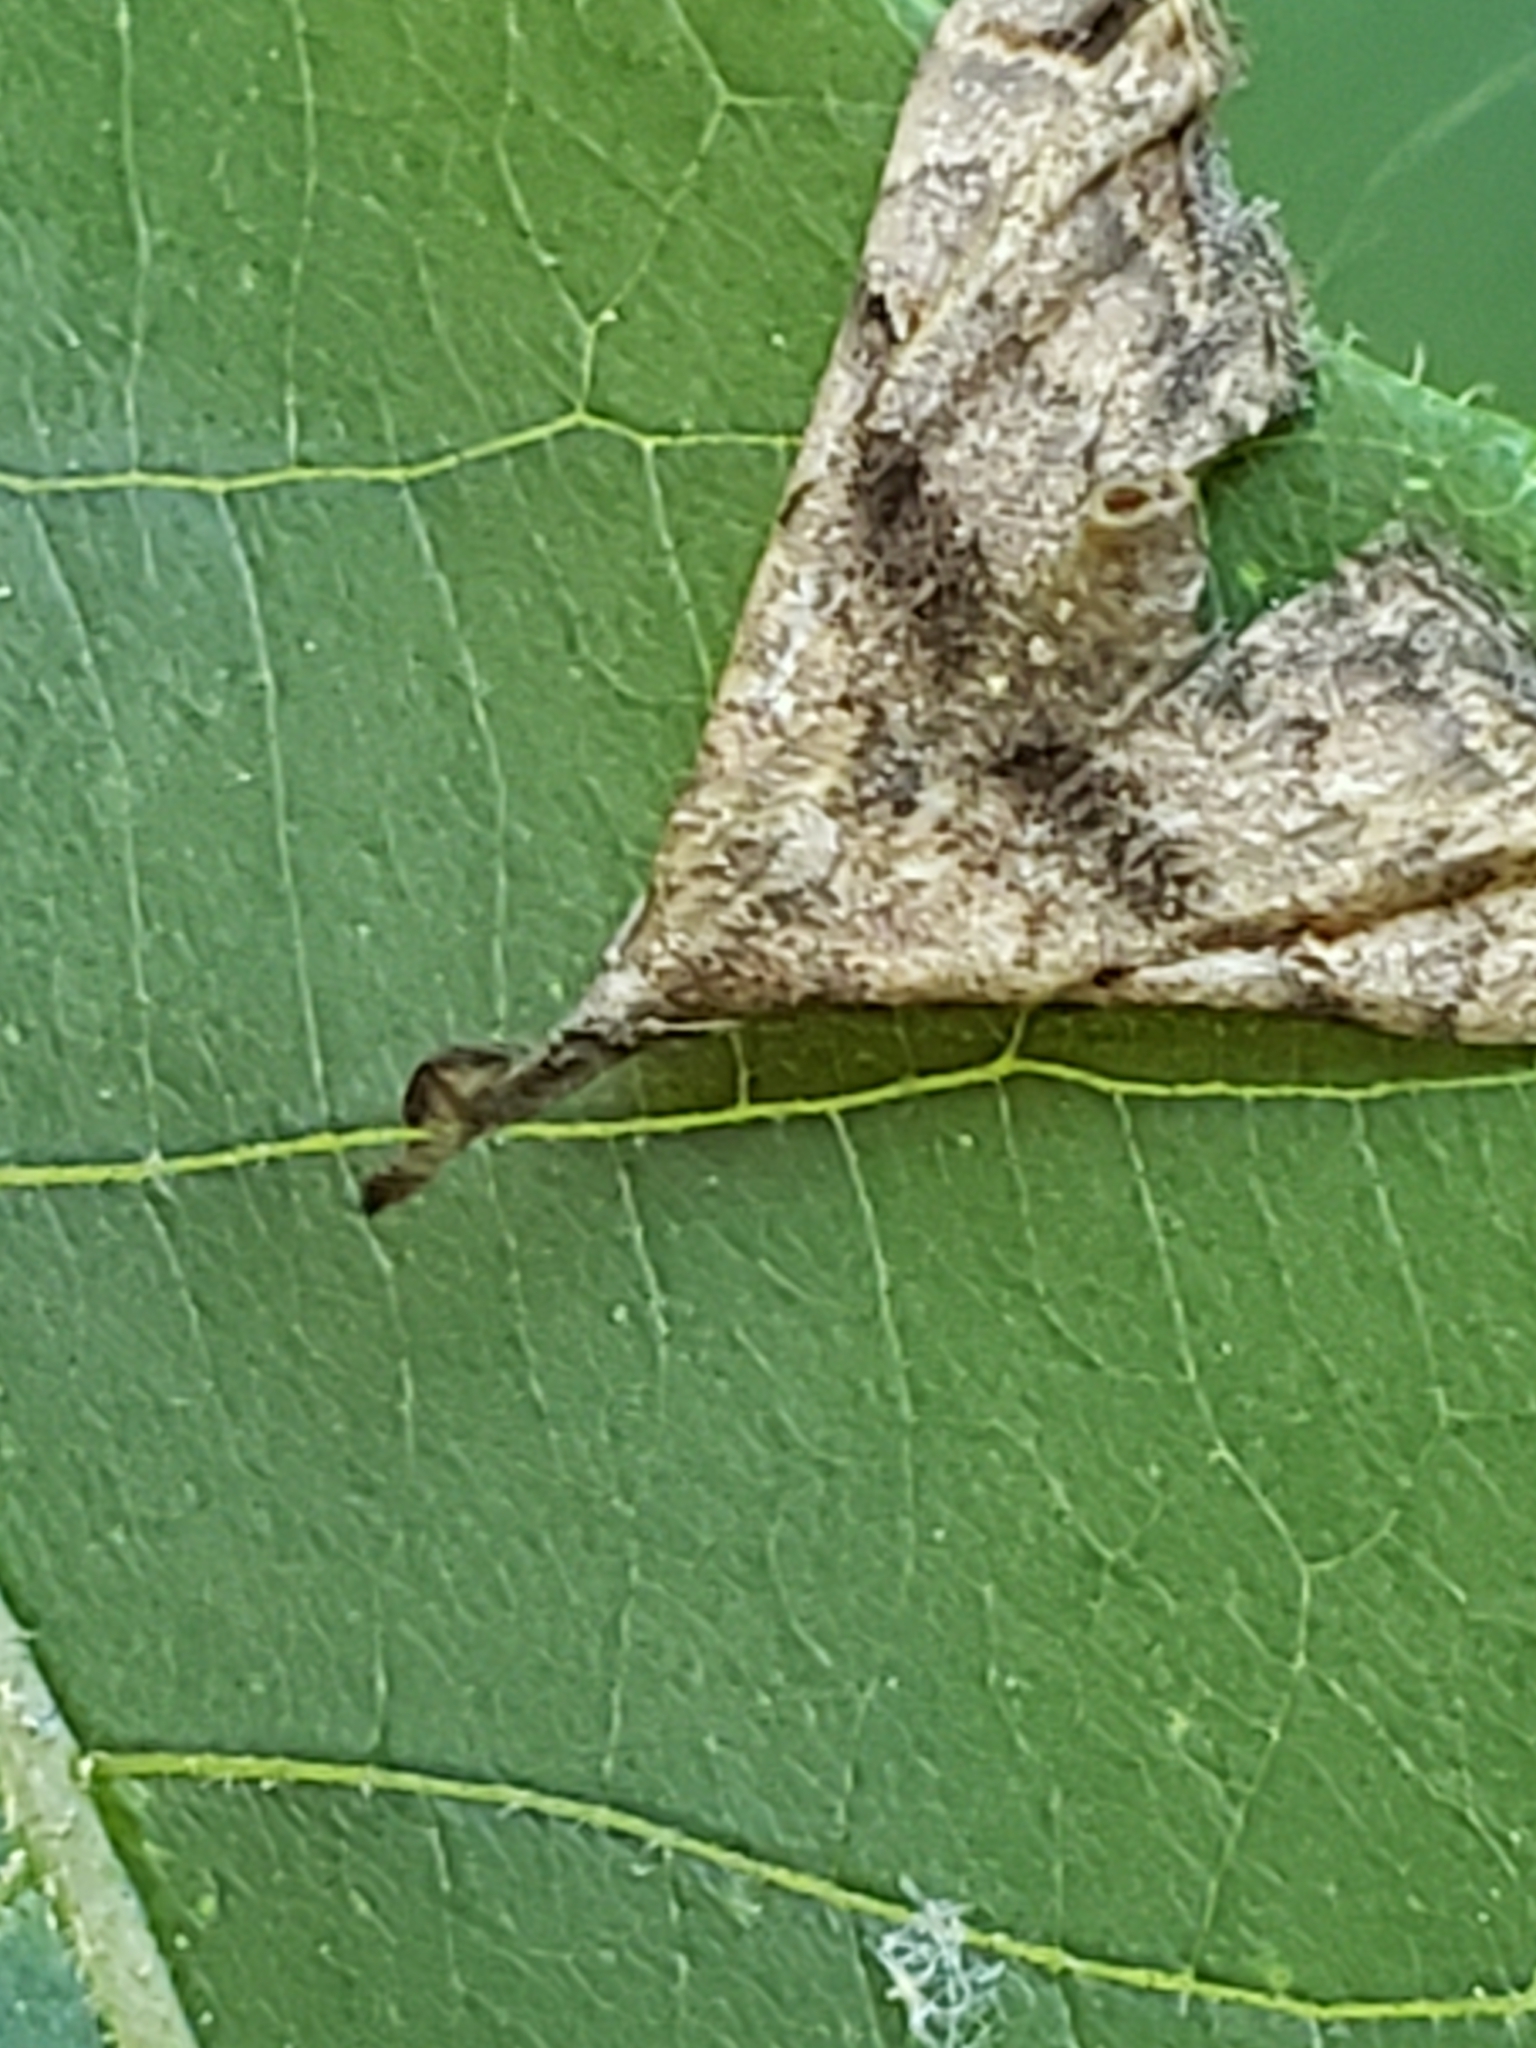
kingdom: Animalia
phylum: Arthropoda
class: Insecta
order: Lepidoptera
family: Erebidae
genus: Palthis
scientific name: Palthis asopialis
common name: Faint-spotted palthis moth
